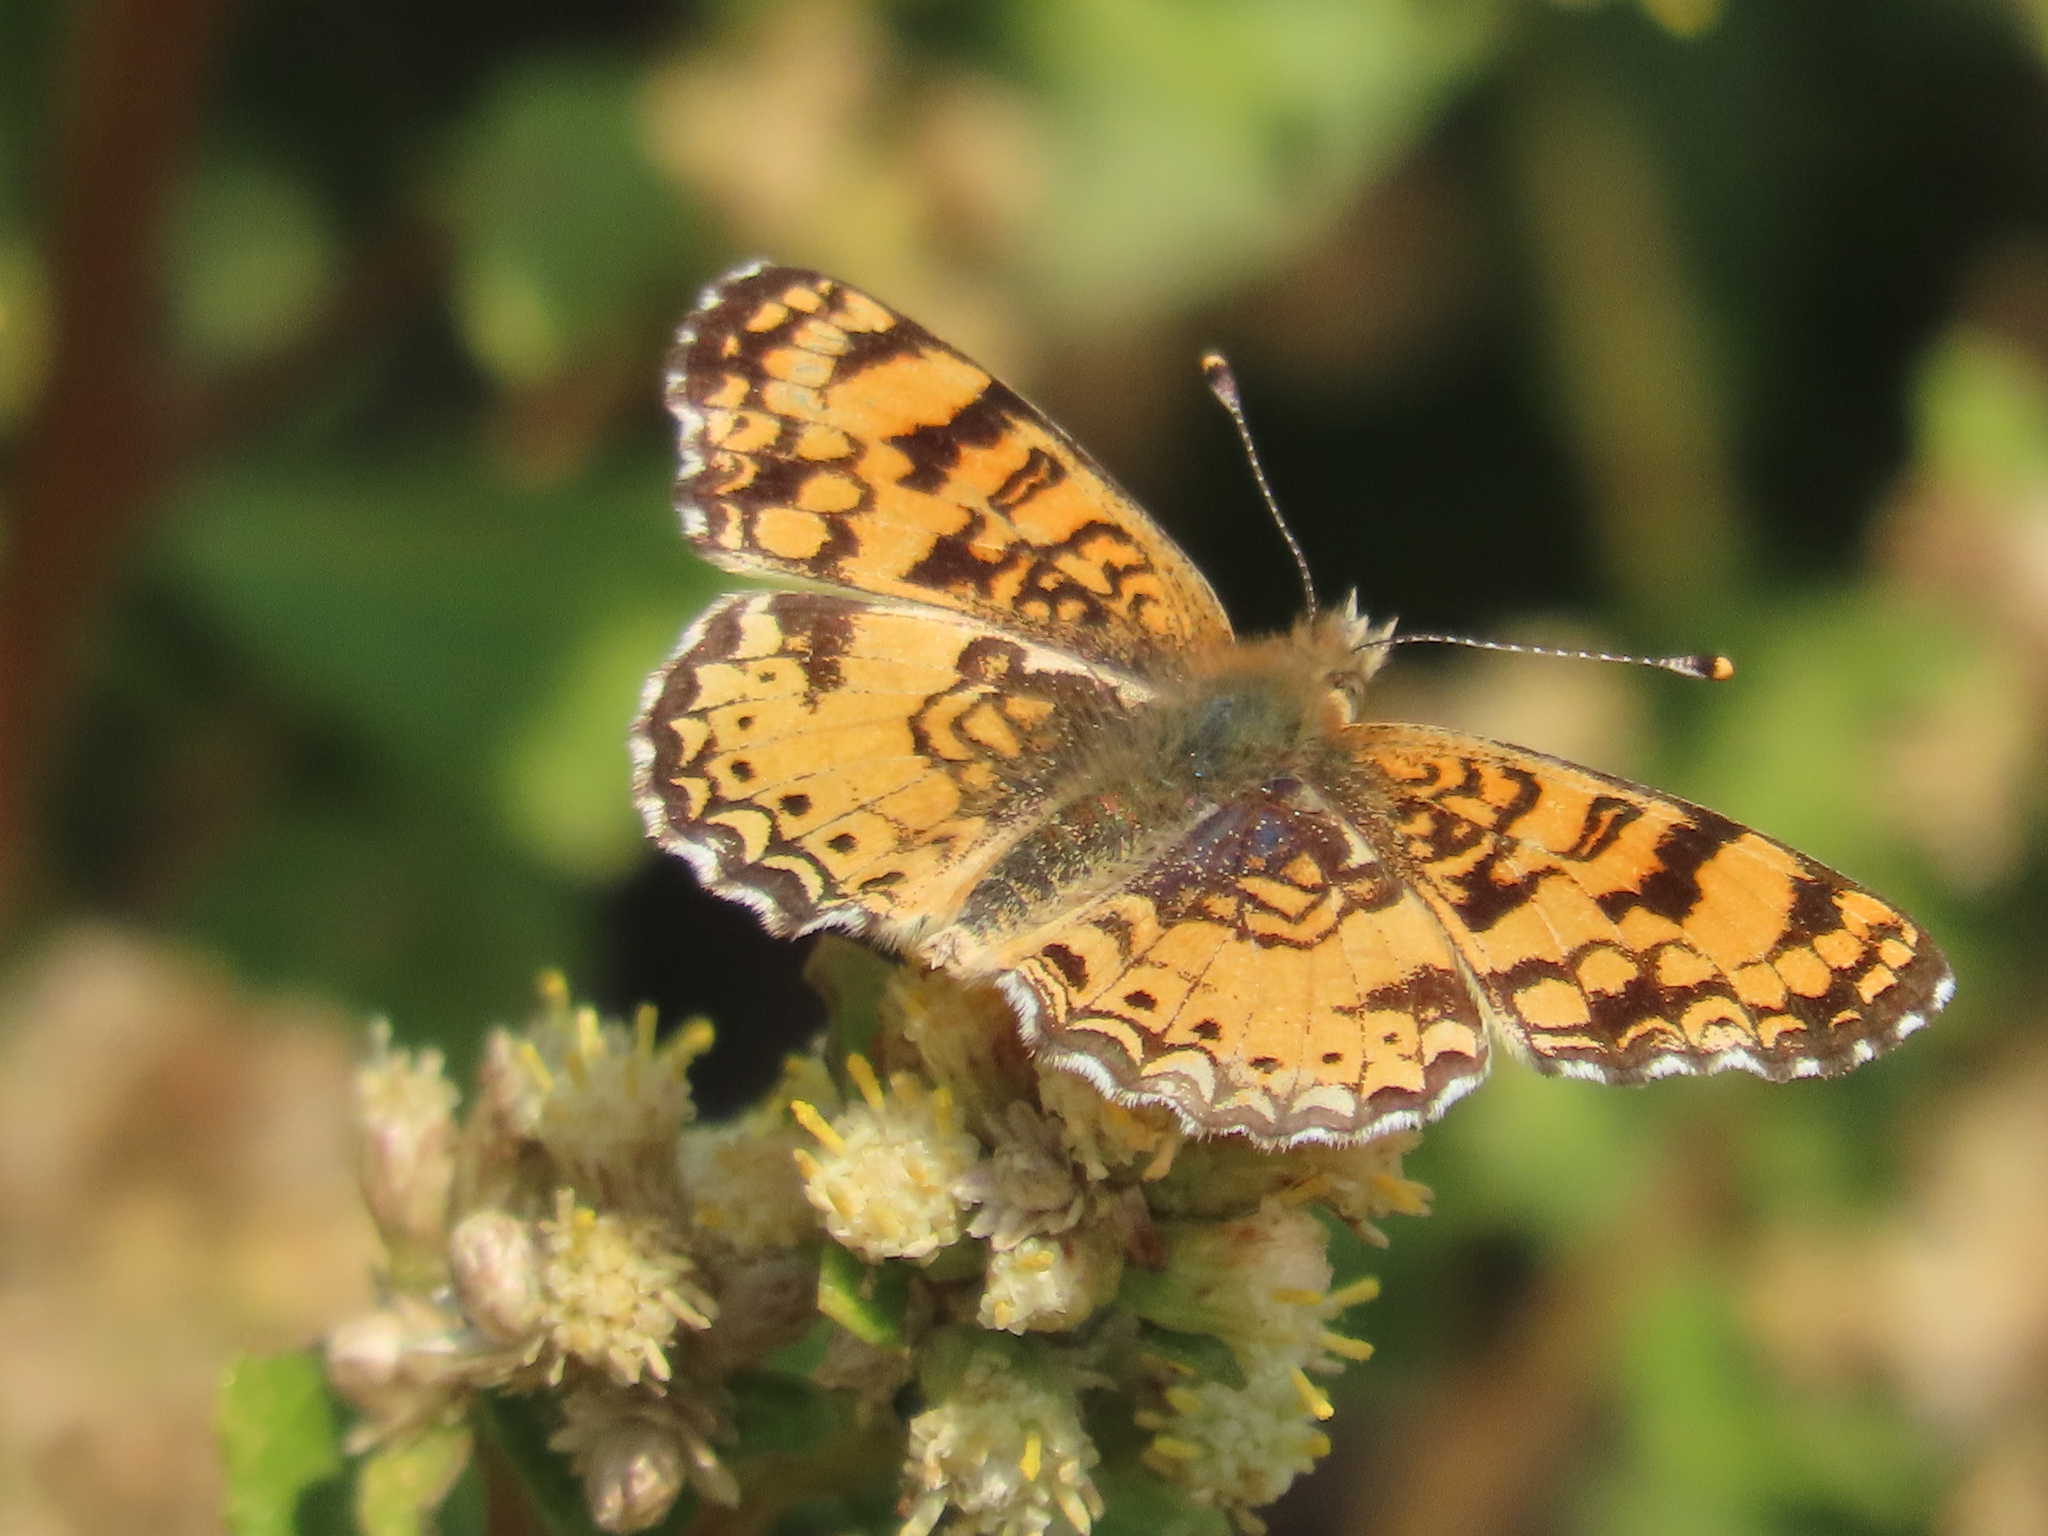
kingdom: Animalia
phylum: Arthropoda
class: Insecta
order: Lepidoptera
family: Nymphalidae
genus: Eresia
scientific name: Eresia aveyrona
